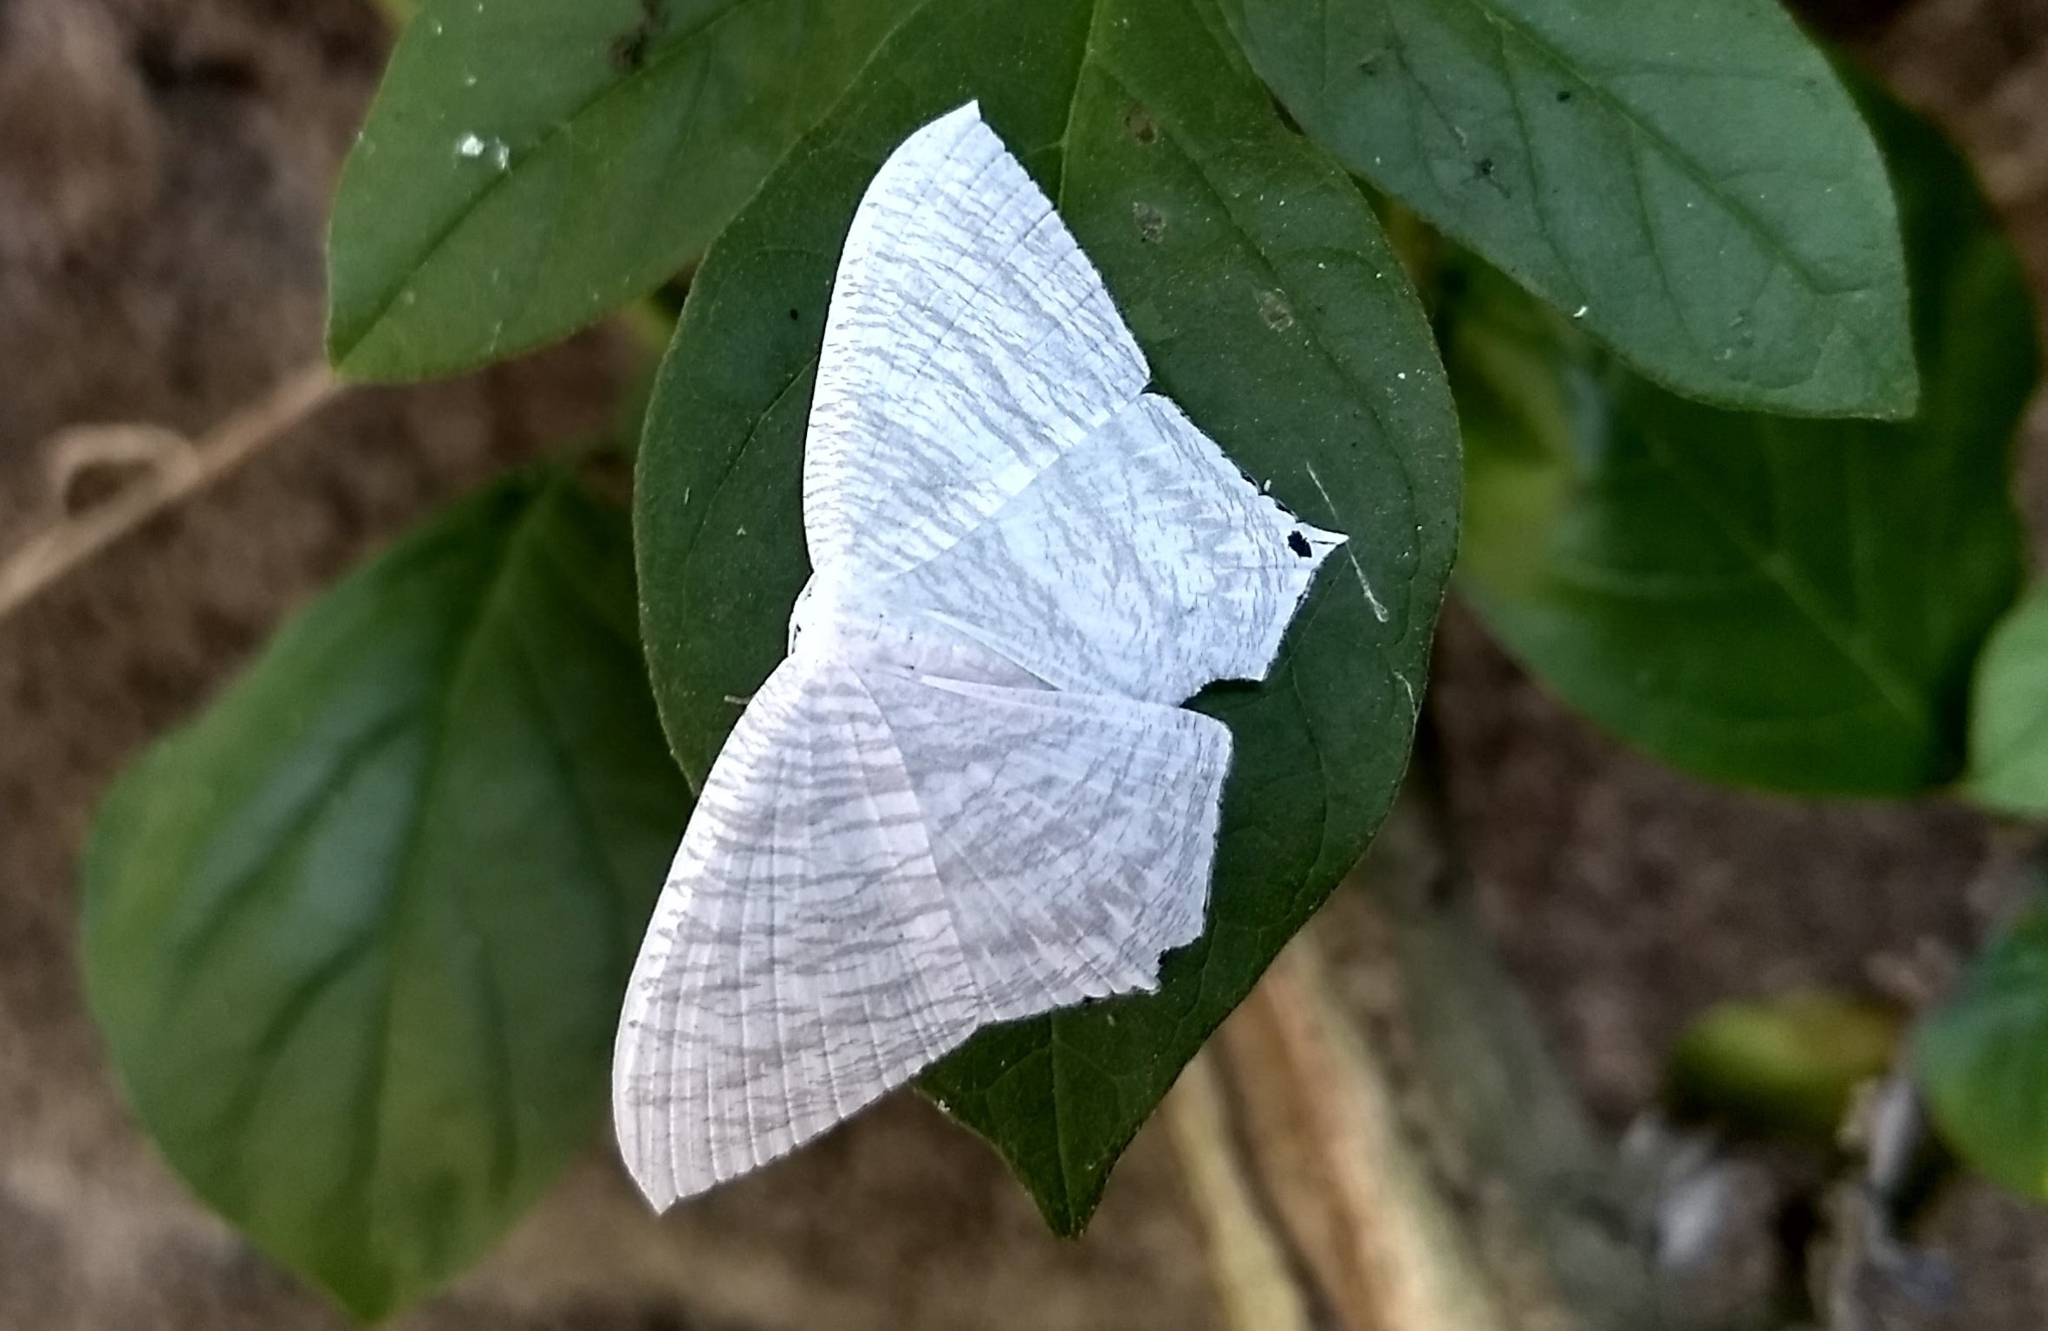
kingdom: Animalia
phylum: Arthropoda
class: Insecta
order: Lepidoptera
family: Uraniidae
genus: Micronia
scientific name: Micronia aculeata
